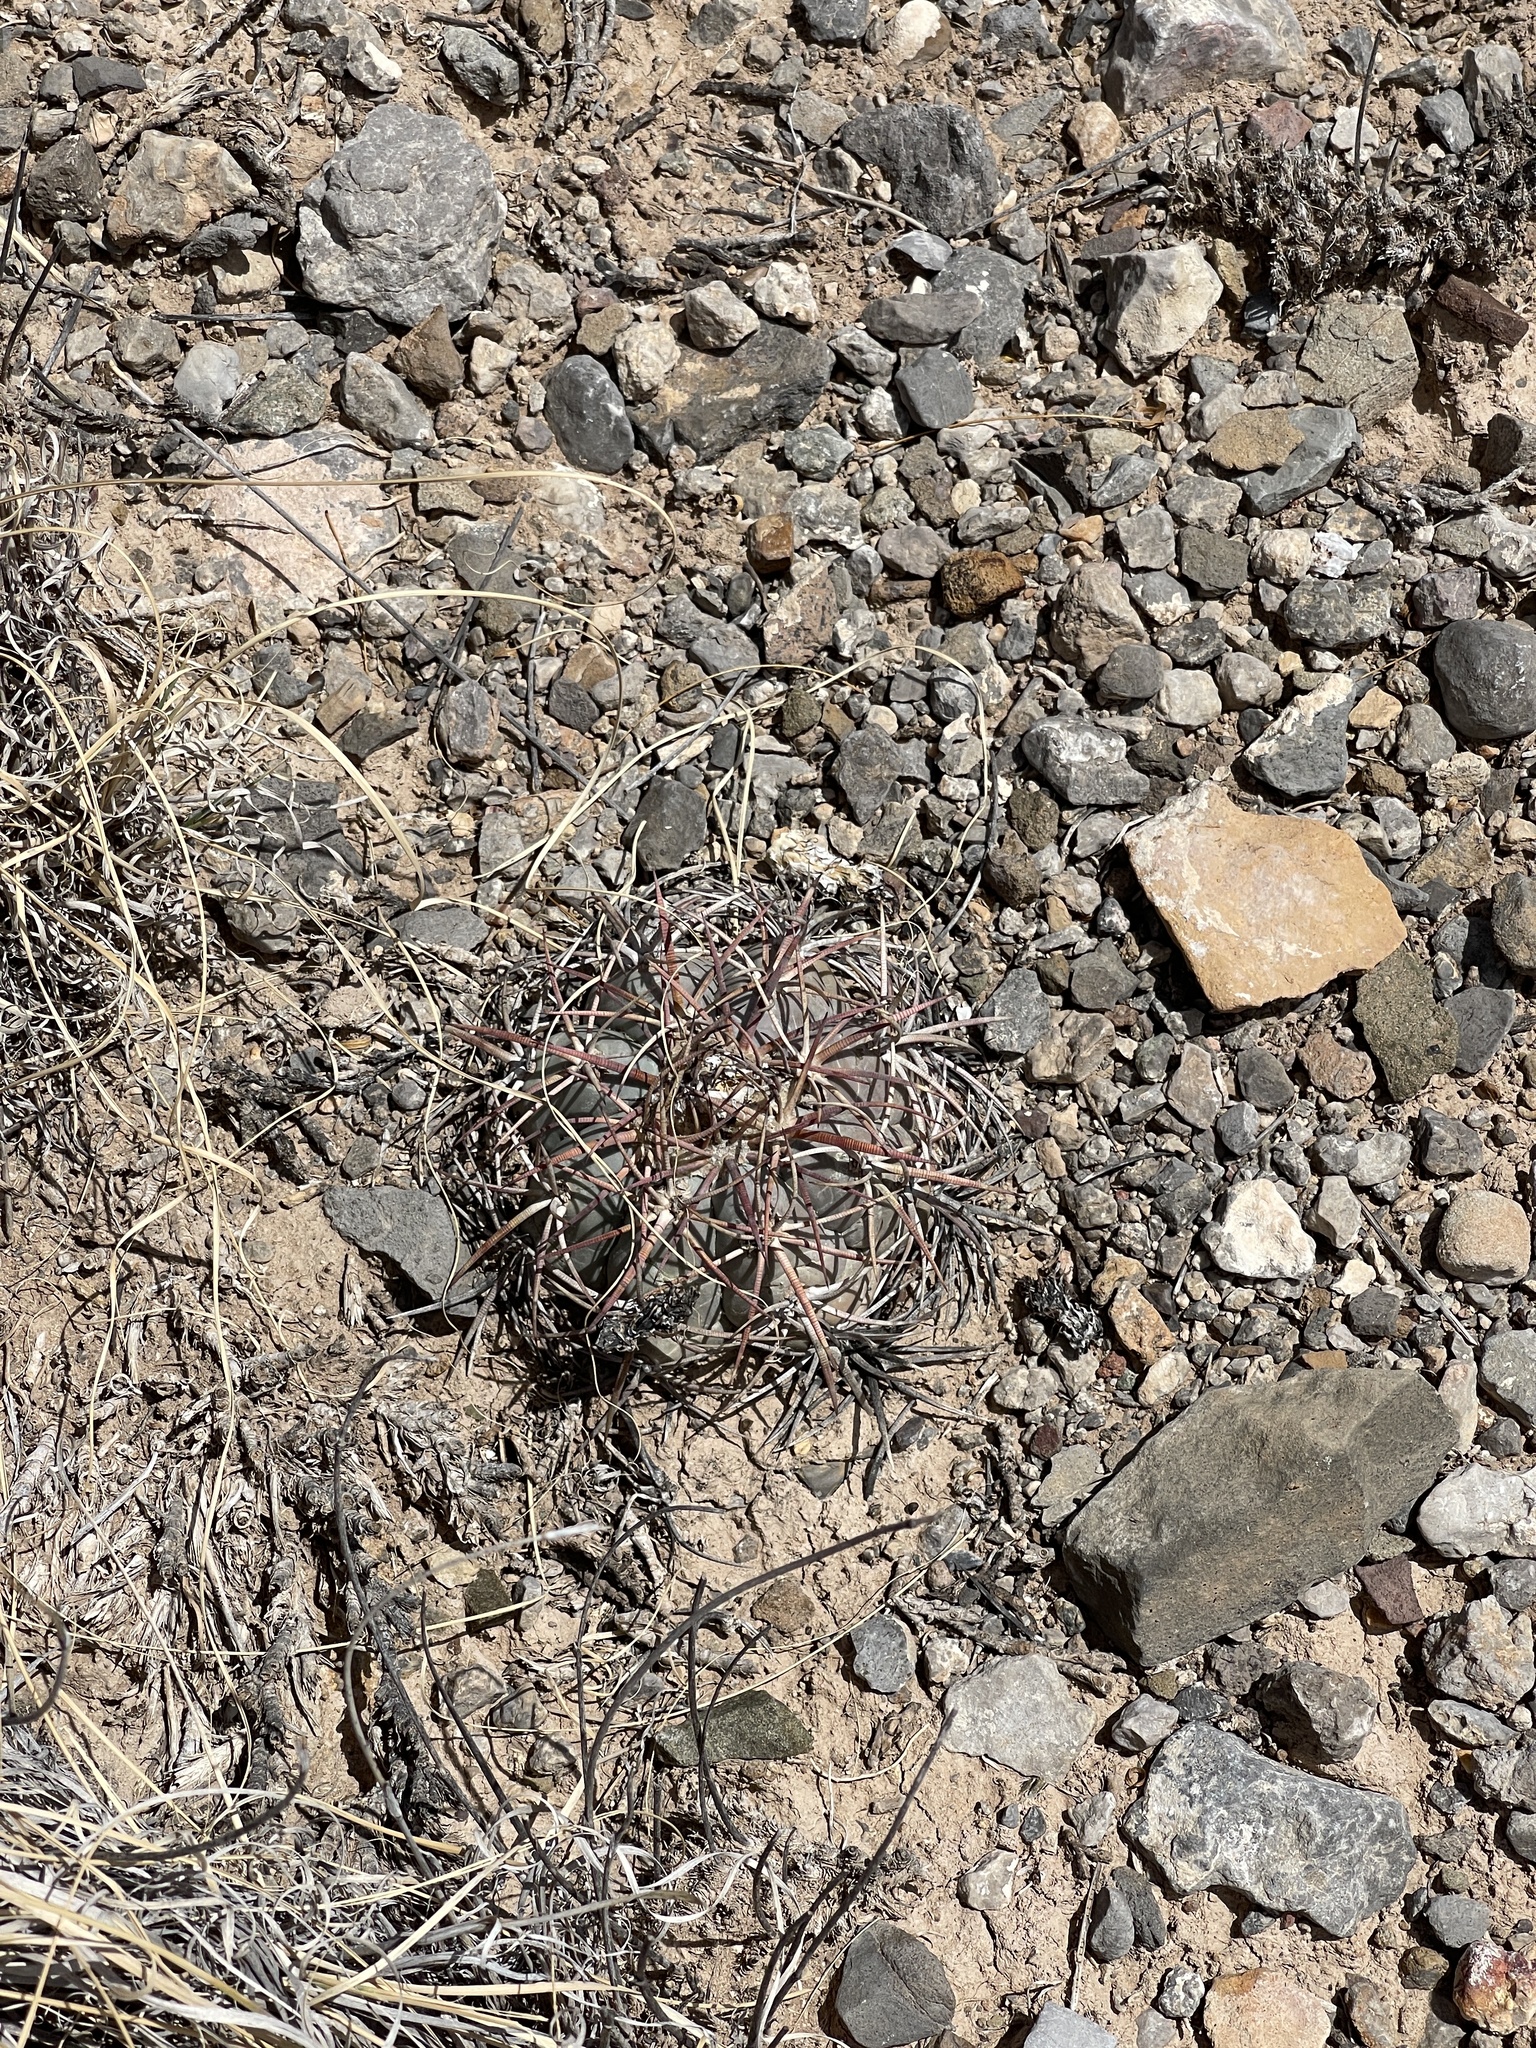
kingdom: Plantae
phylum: Tracheophyta
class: Magnoliopsida
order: Caryophyllales
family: Cactaceae
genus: Echinocactus
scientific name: Echinocactus horizonthalonius
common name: Devilshead
